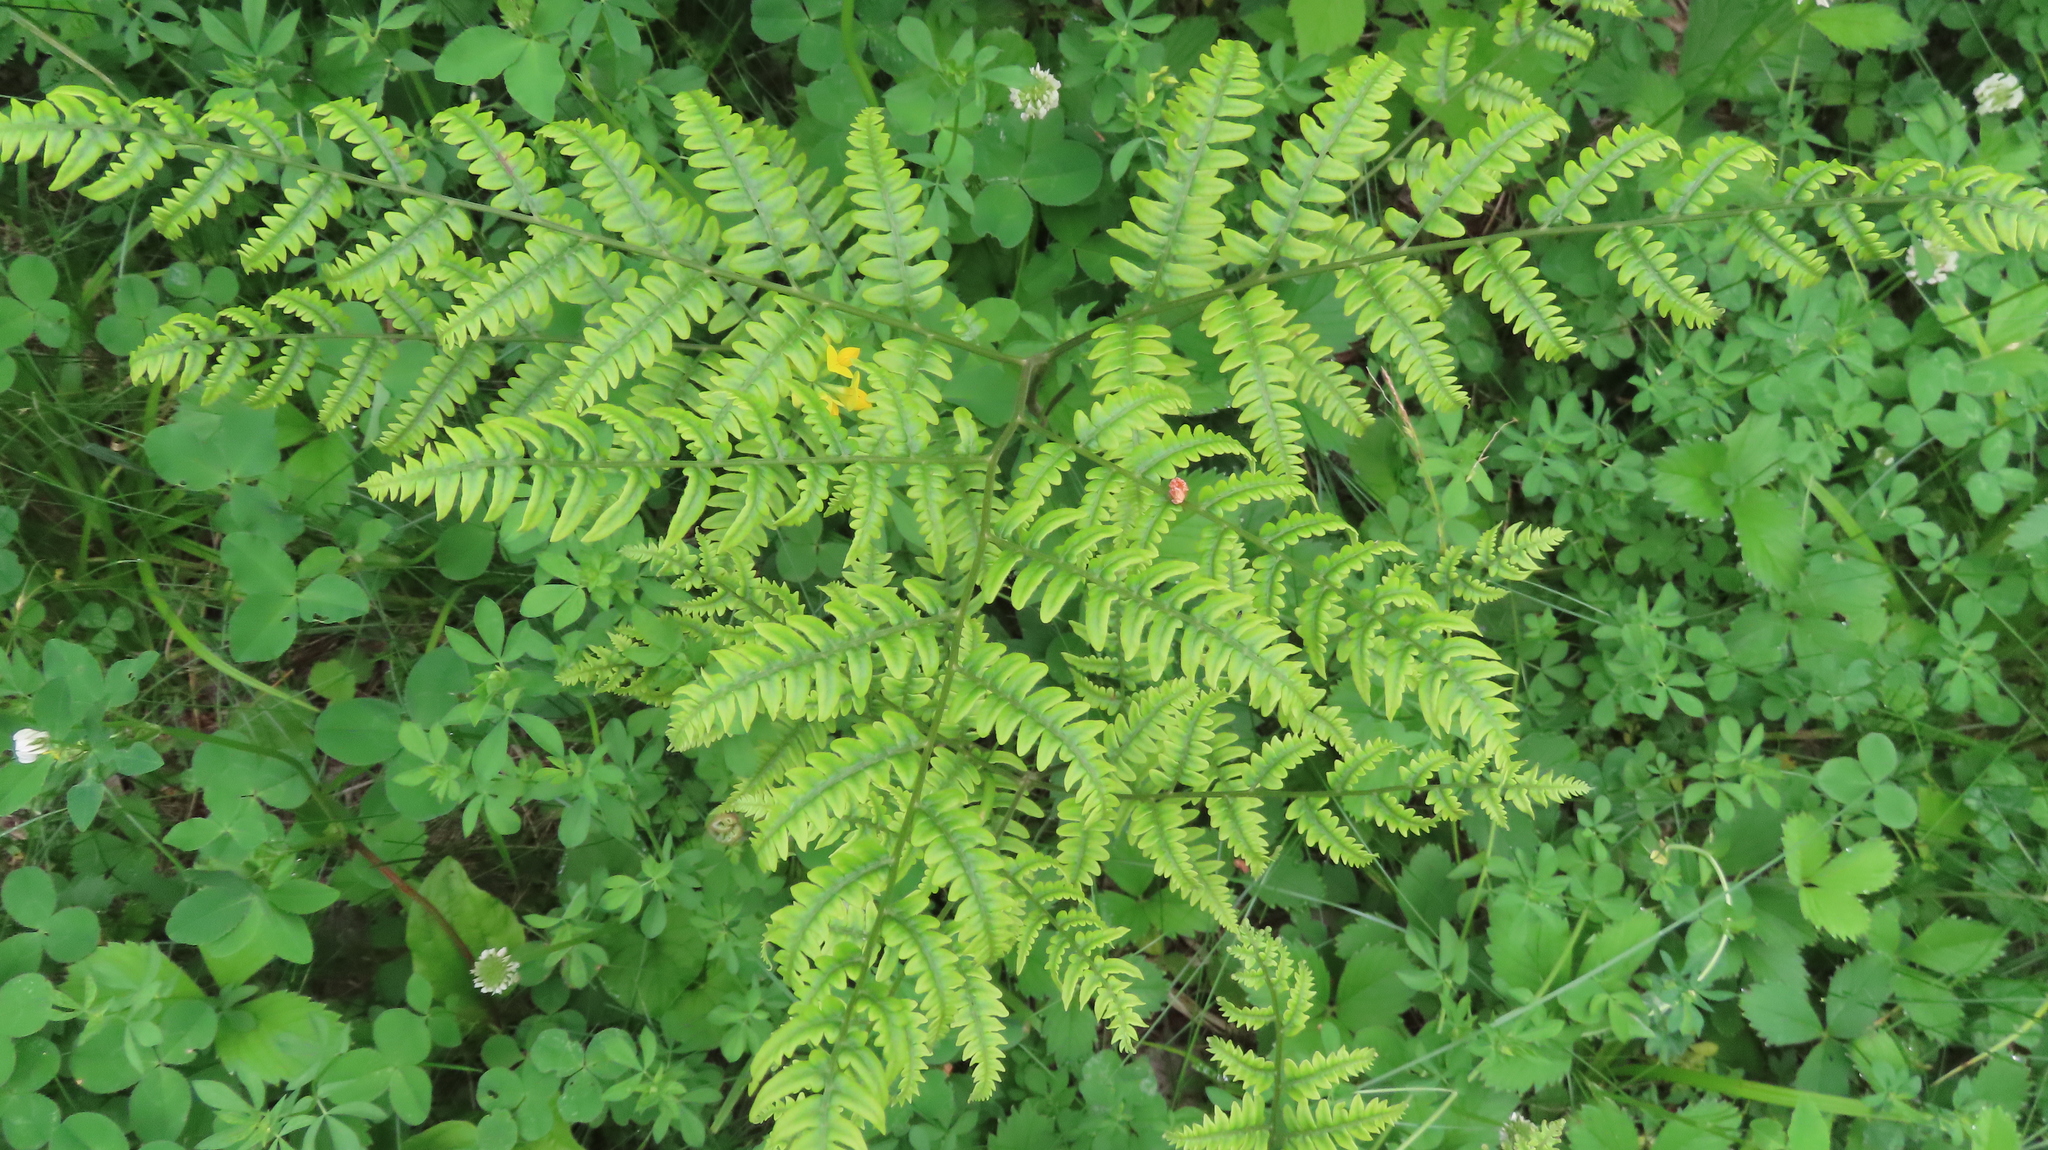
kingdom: Plantae
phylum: Tracheophyta
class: Polypodiopsida
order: Polypodiales
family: Dennstaedtiaceae
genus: Pteridium
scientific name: Pteridium aquilinum
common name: Bracken
